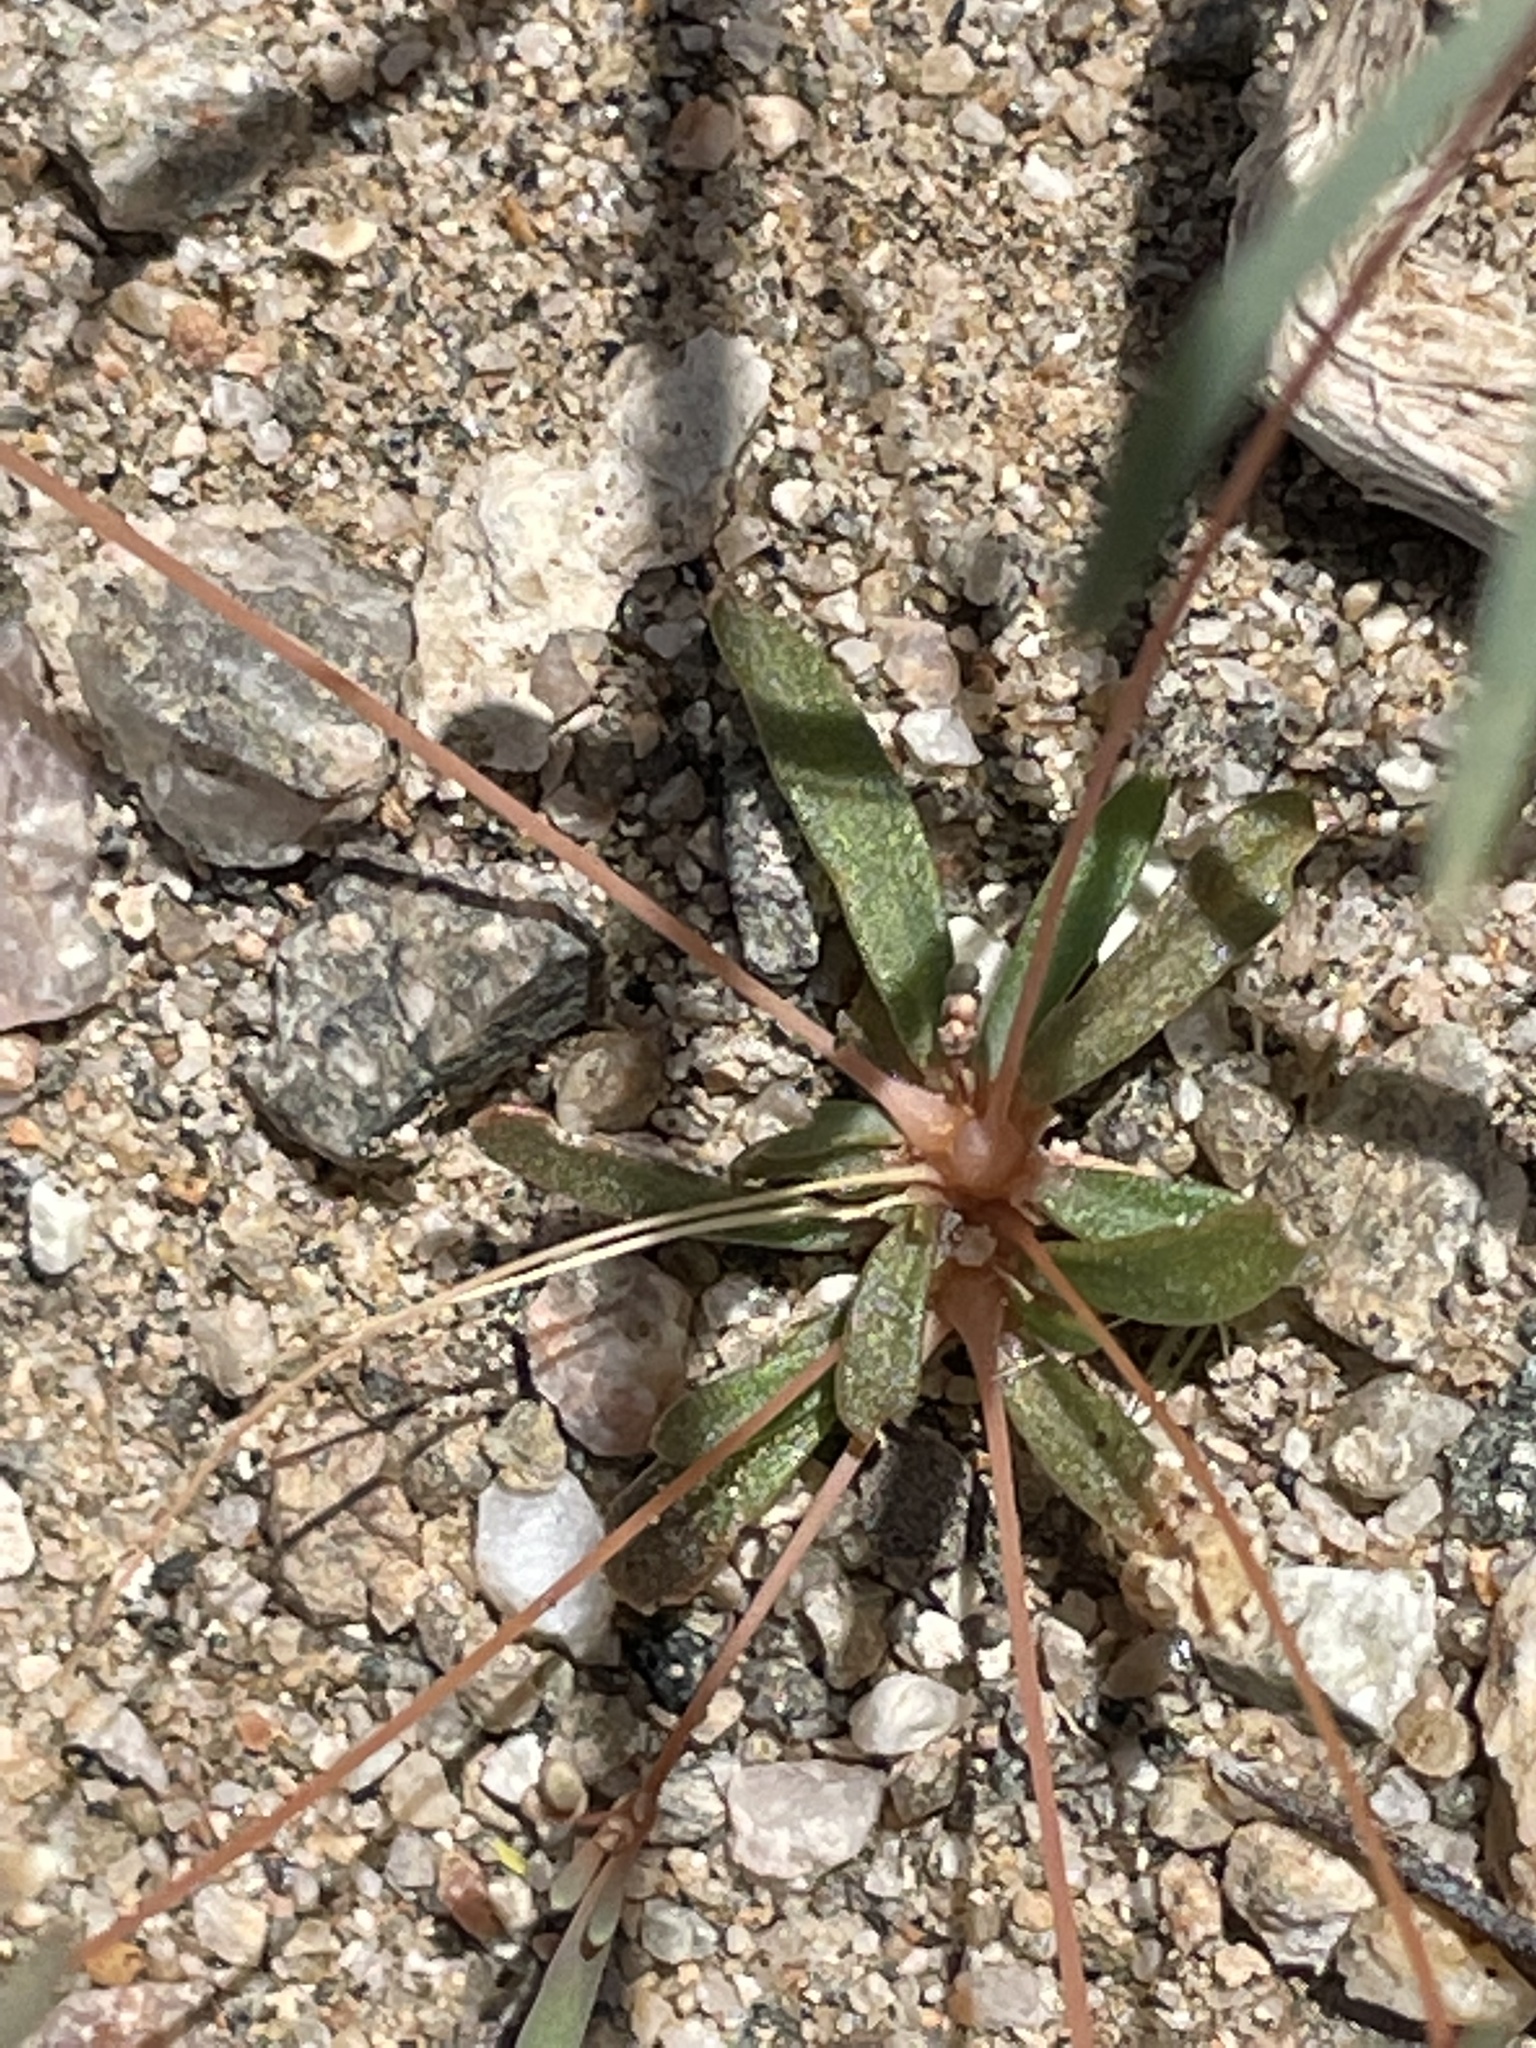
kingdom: Plantae
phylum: Tracheophyta
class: Magnoliopsida
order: Caryophyllales
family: Molluginaceae
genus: Hypertelis
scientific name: Hypertelis umbellata
